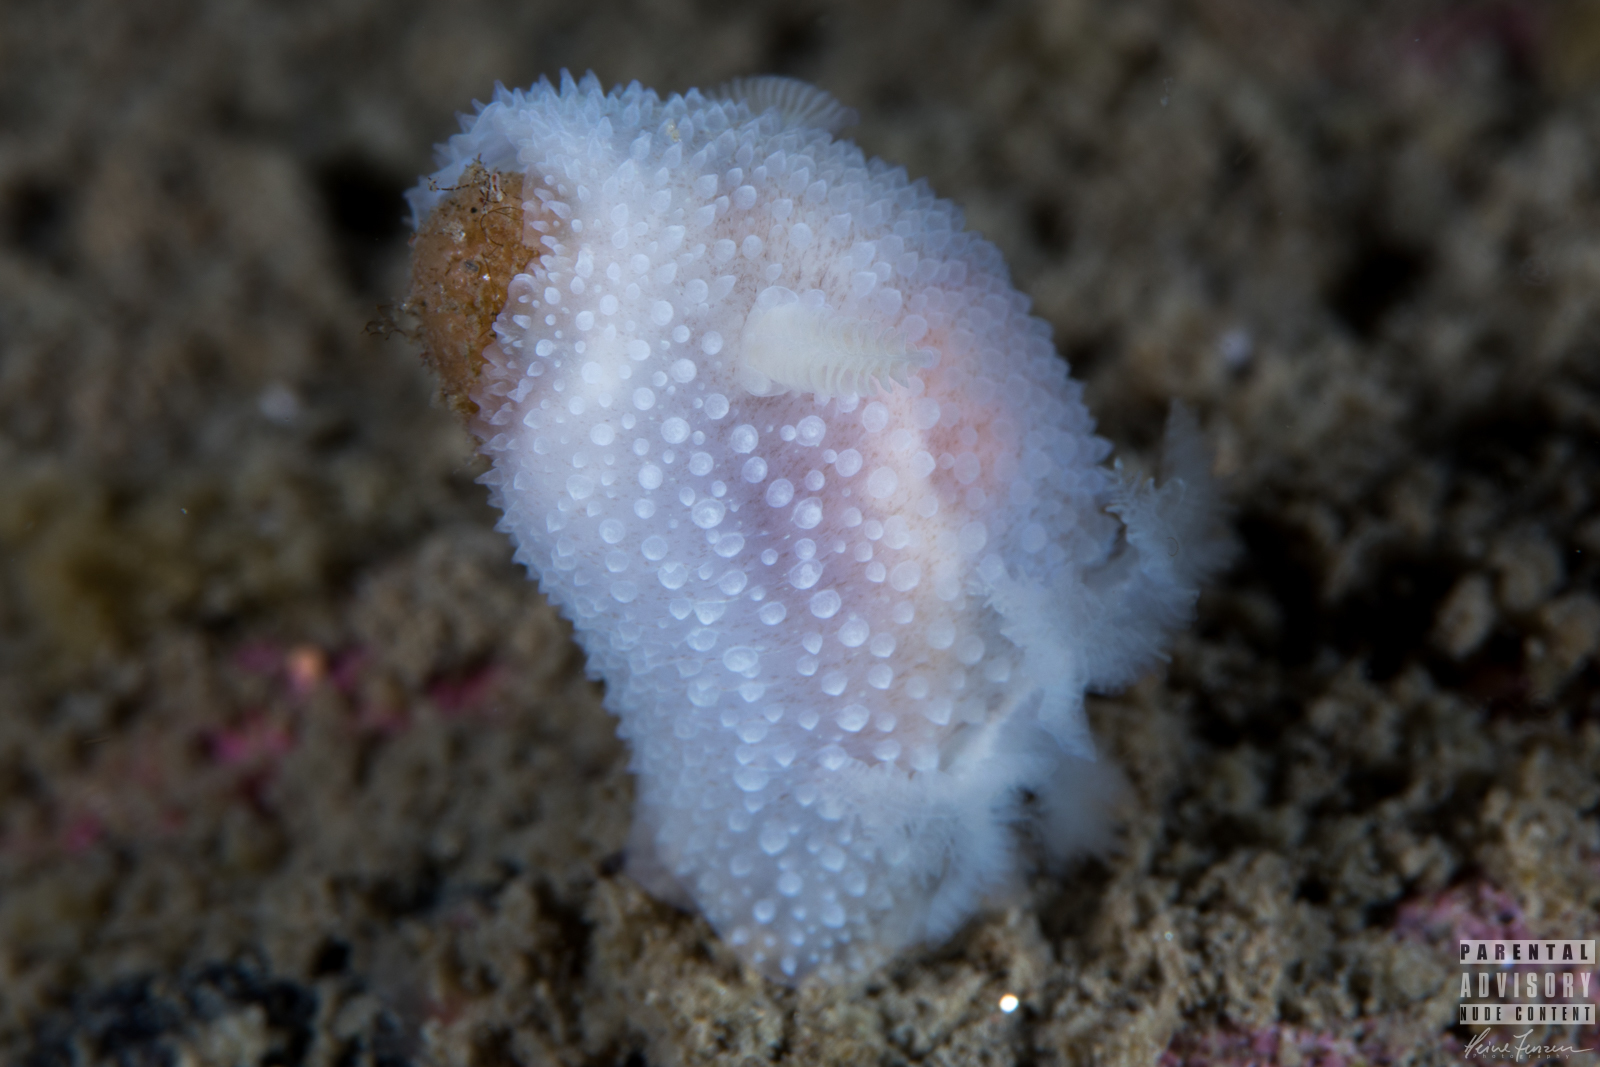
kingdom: Animalia
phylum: Mollusca
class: Gastropoda
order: Nudibranchia
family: Onchidorididae
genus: Acanthodoris
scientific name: Acanthodoris pilosa
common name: Hairy spiny doris
